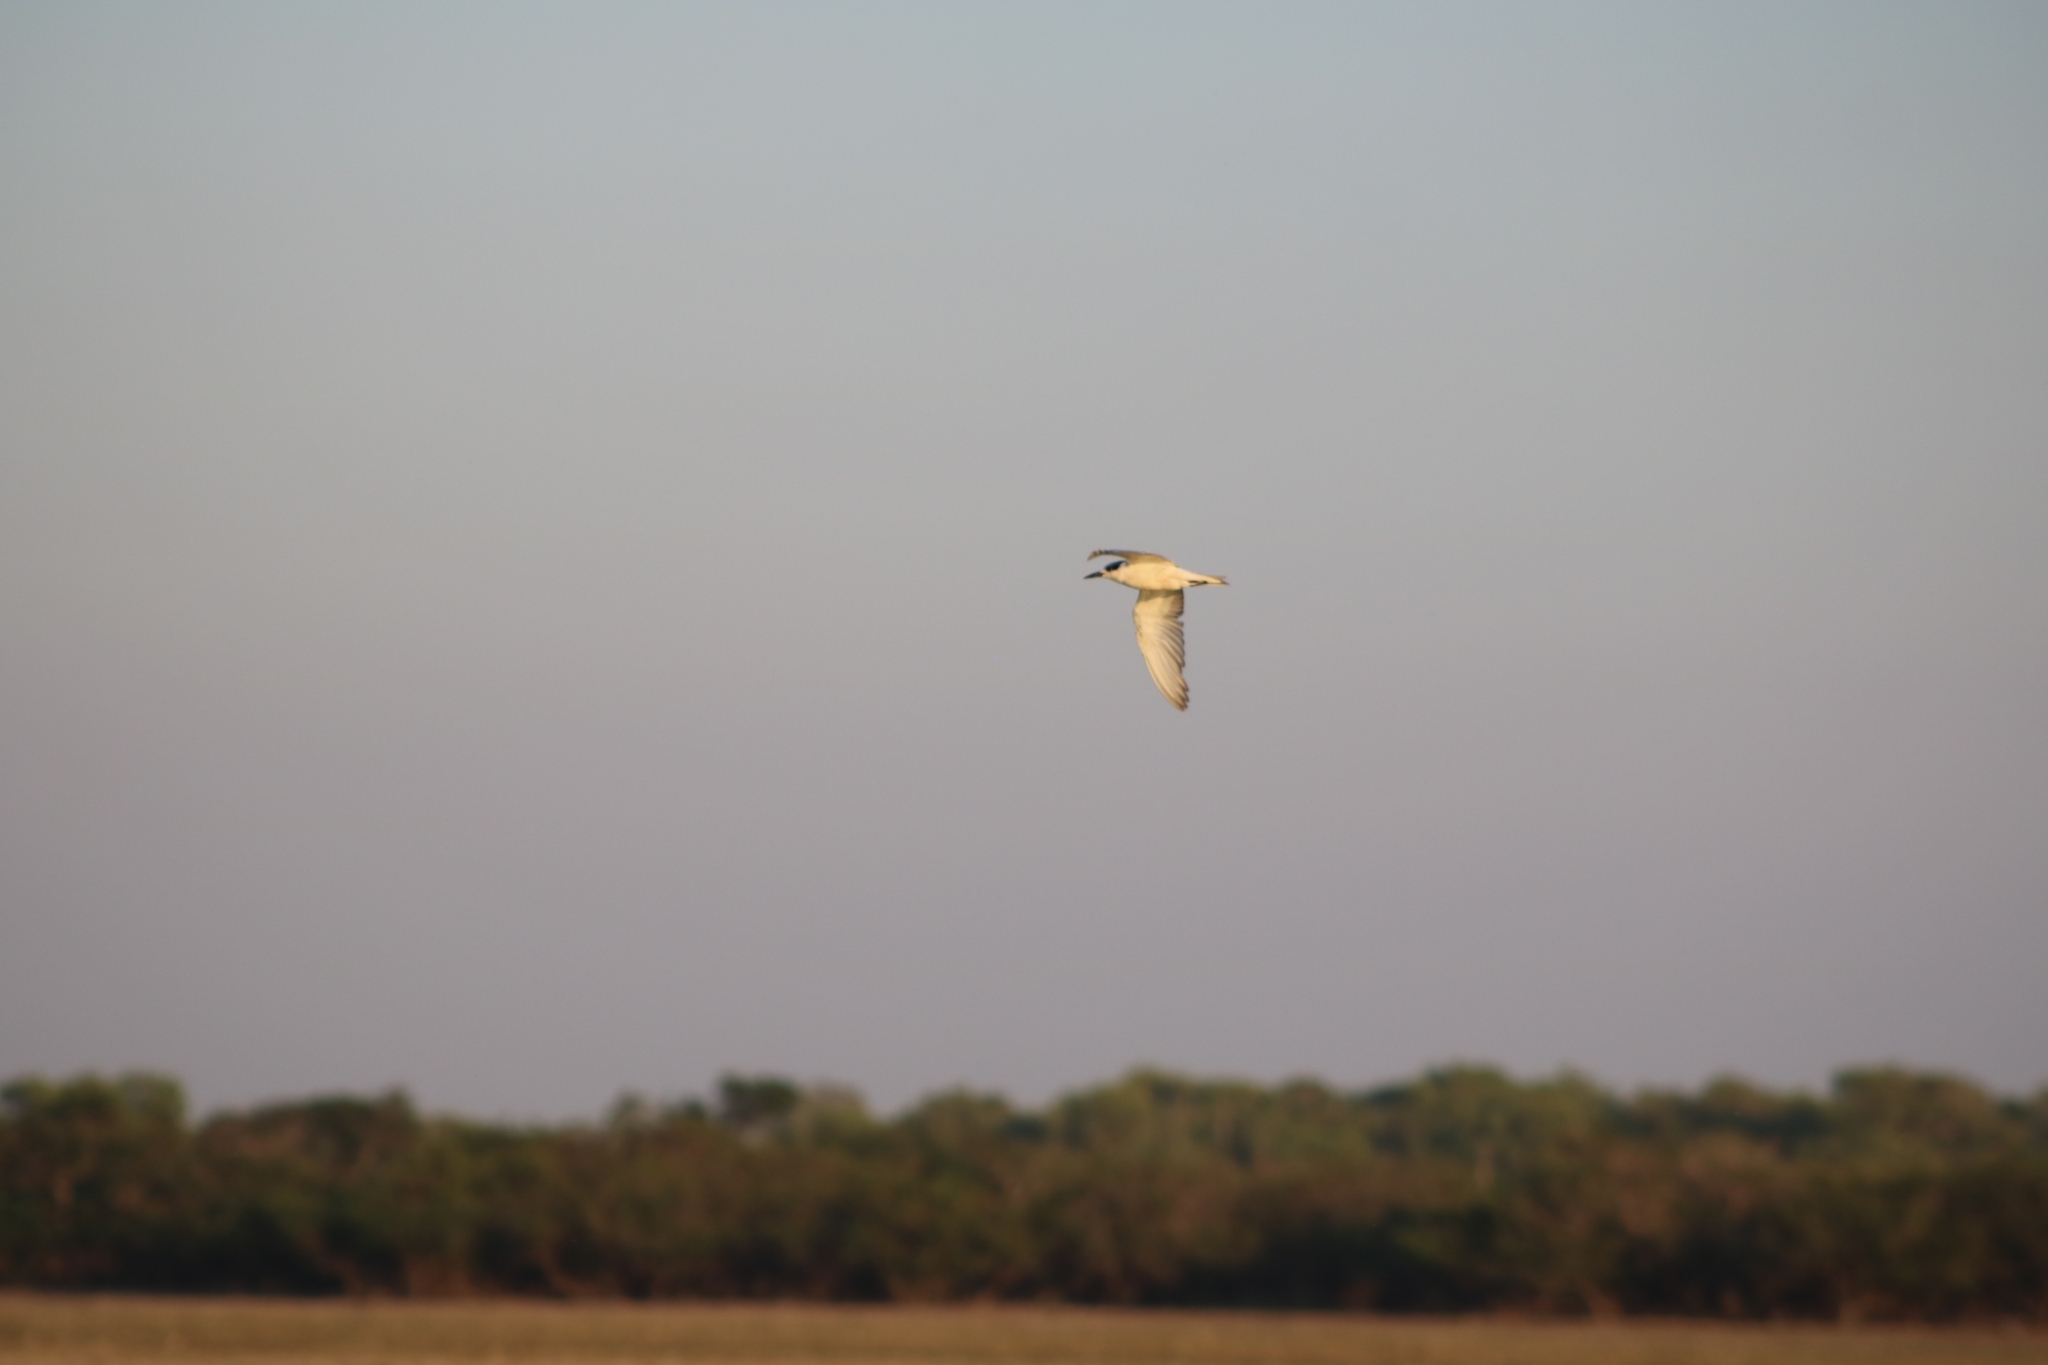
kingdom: Animalia
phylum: Chordata
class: Aves
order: Charadriiformes
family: Laridae
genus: Chlidonias
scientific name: Chlidonias hybrida
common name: Whiskered tern
